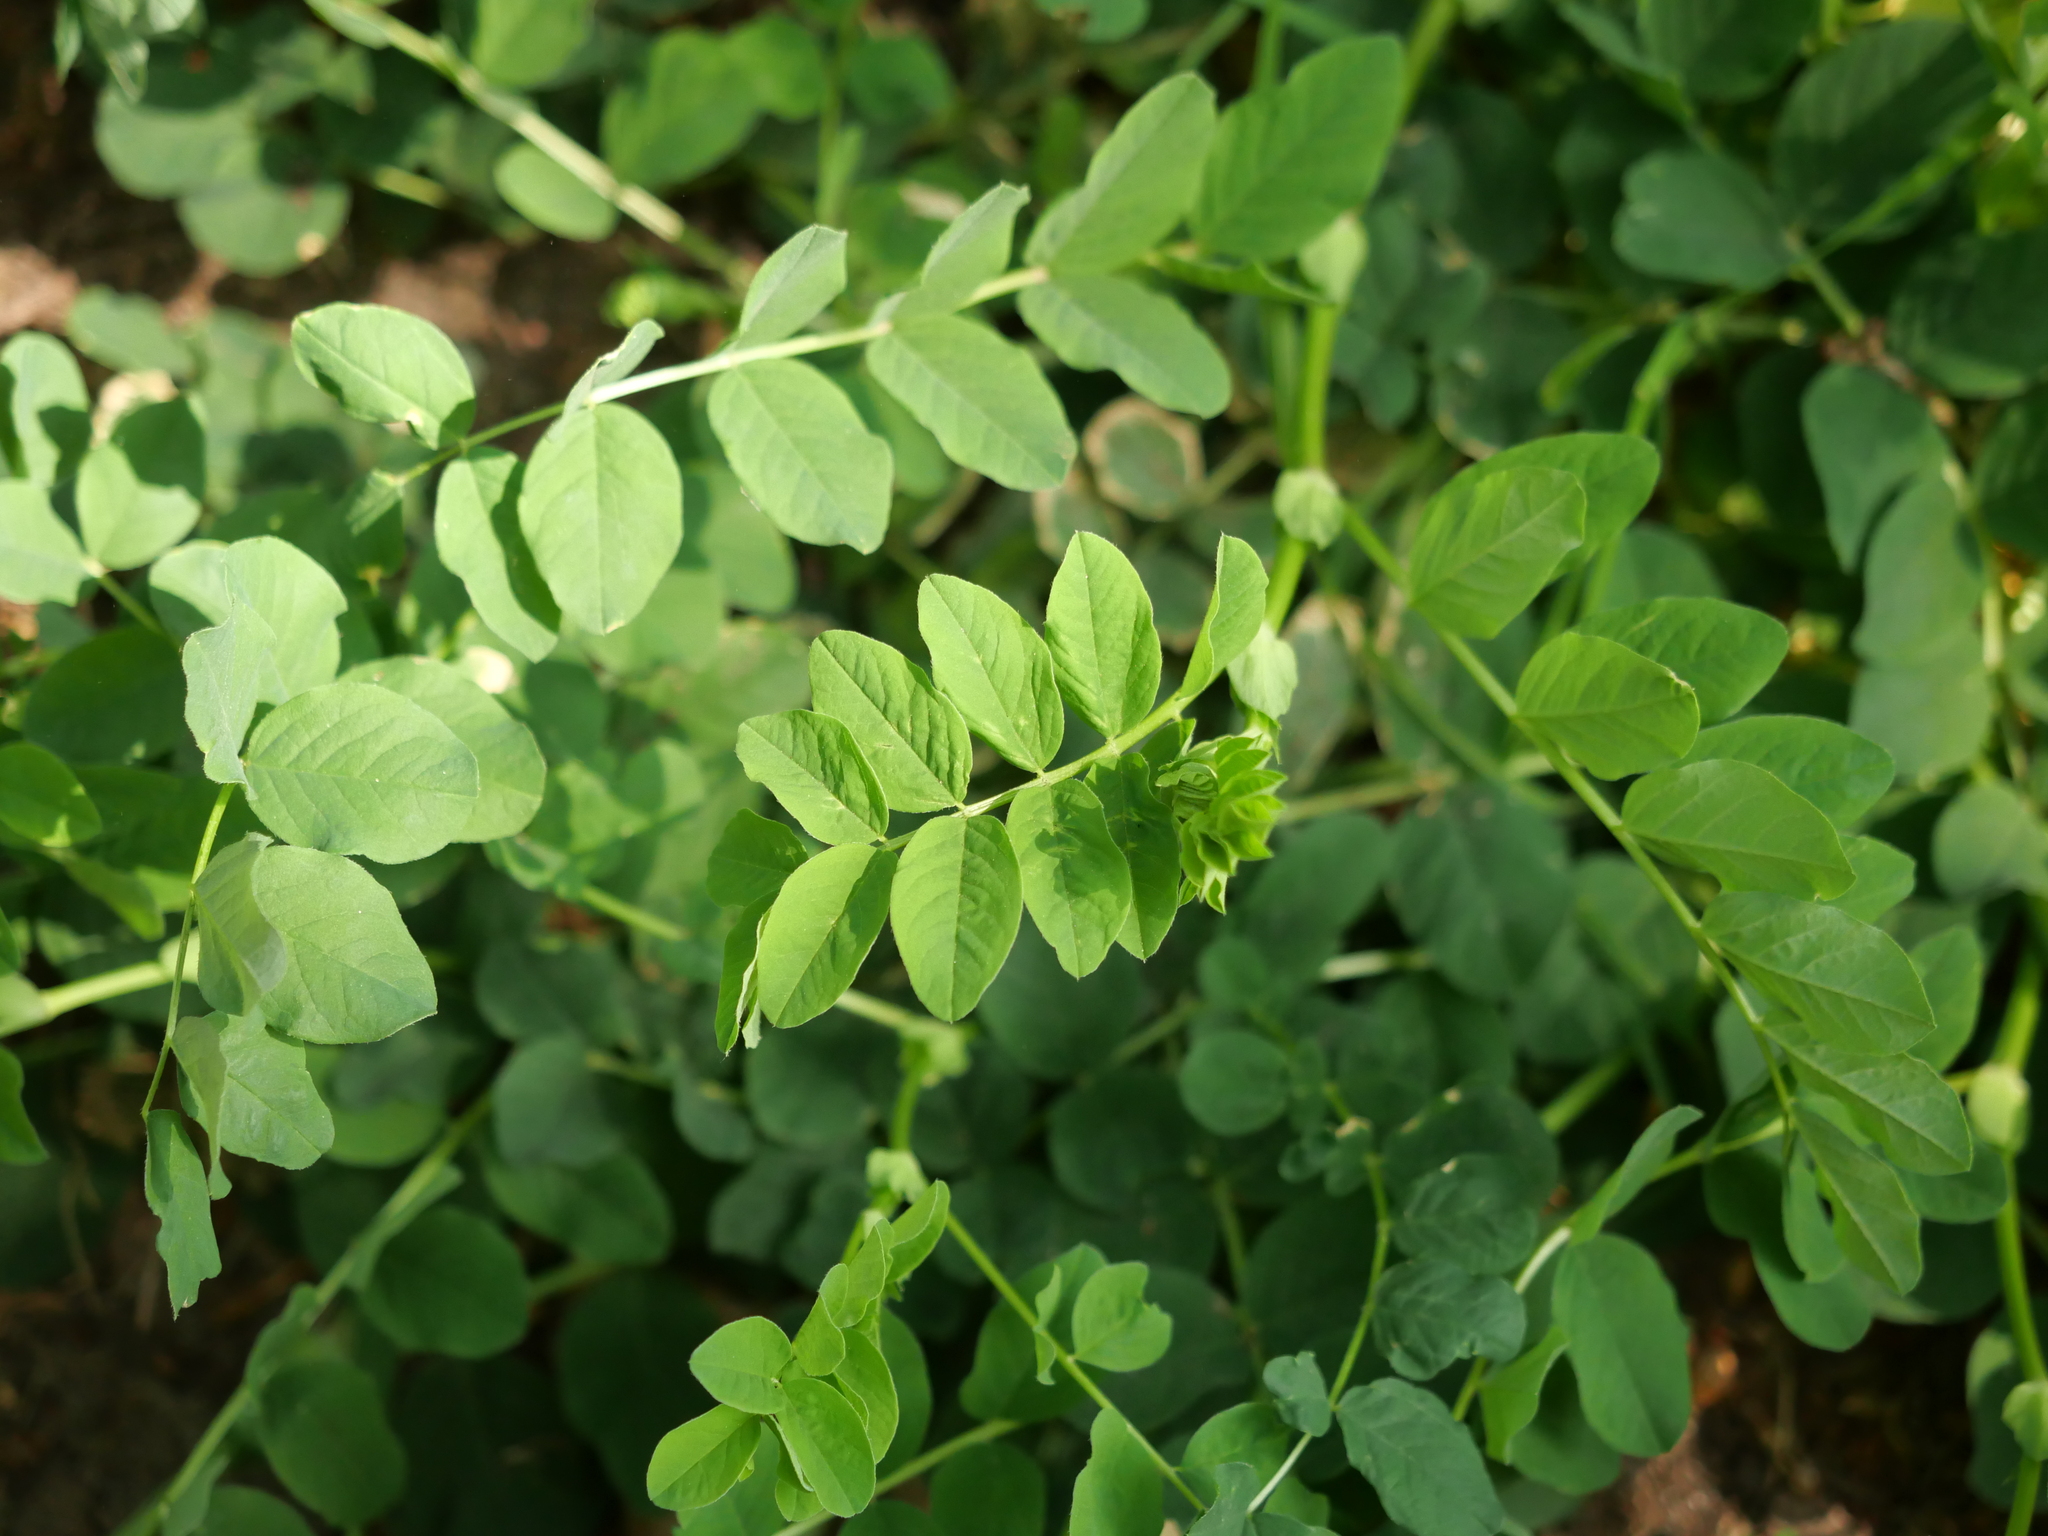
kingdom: Plantae
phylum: Tracheophyta
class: Magnoliopsida
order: Fabales
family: Fabaceae
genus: Astragalus
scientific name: Astragalus glycyphyllos
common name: Wild liquorice
